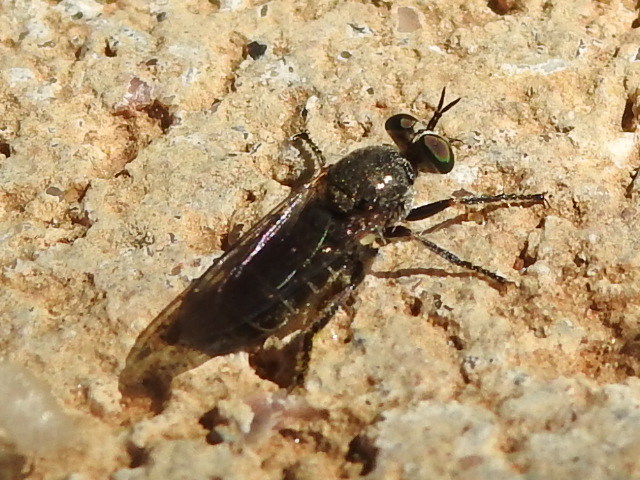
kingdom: Animalia
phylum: Arthropoda
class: Insecta
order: Diptera
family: Asilidae
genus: Atomosia
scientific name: Atomosia
